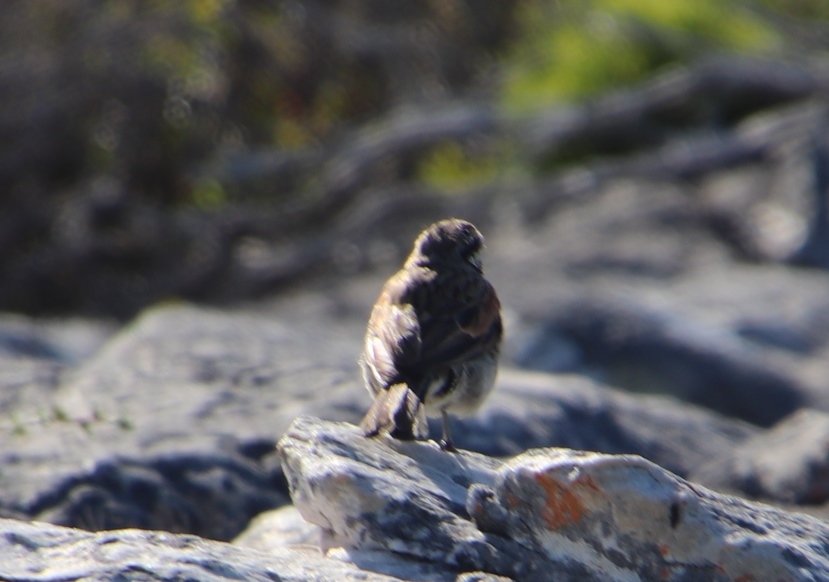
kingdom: Animalia
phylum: Chordata
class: Aves
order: Passeriformes
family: Emberizidae
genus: Emberiza
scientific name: Emberiza capensis
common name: Cape bunting
